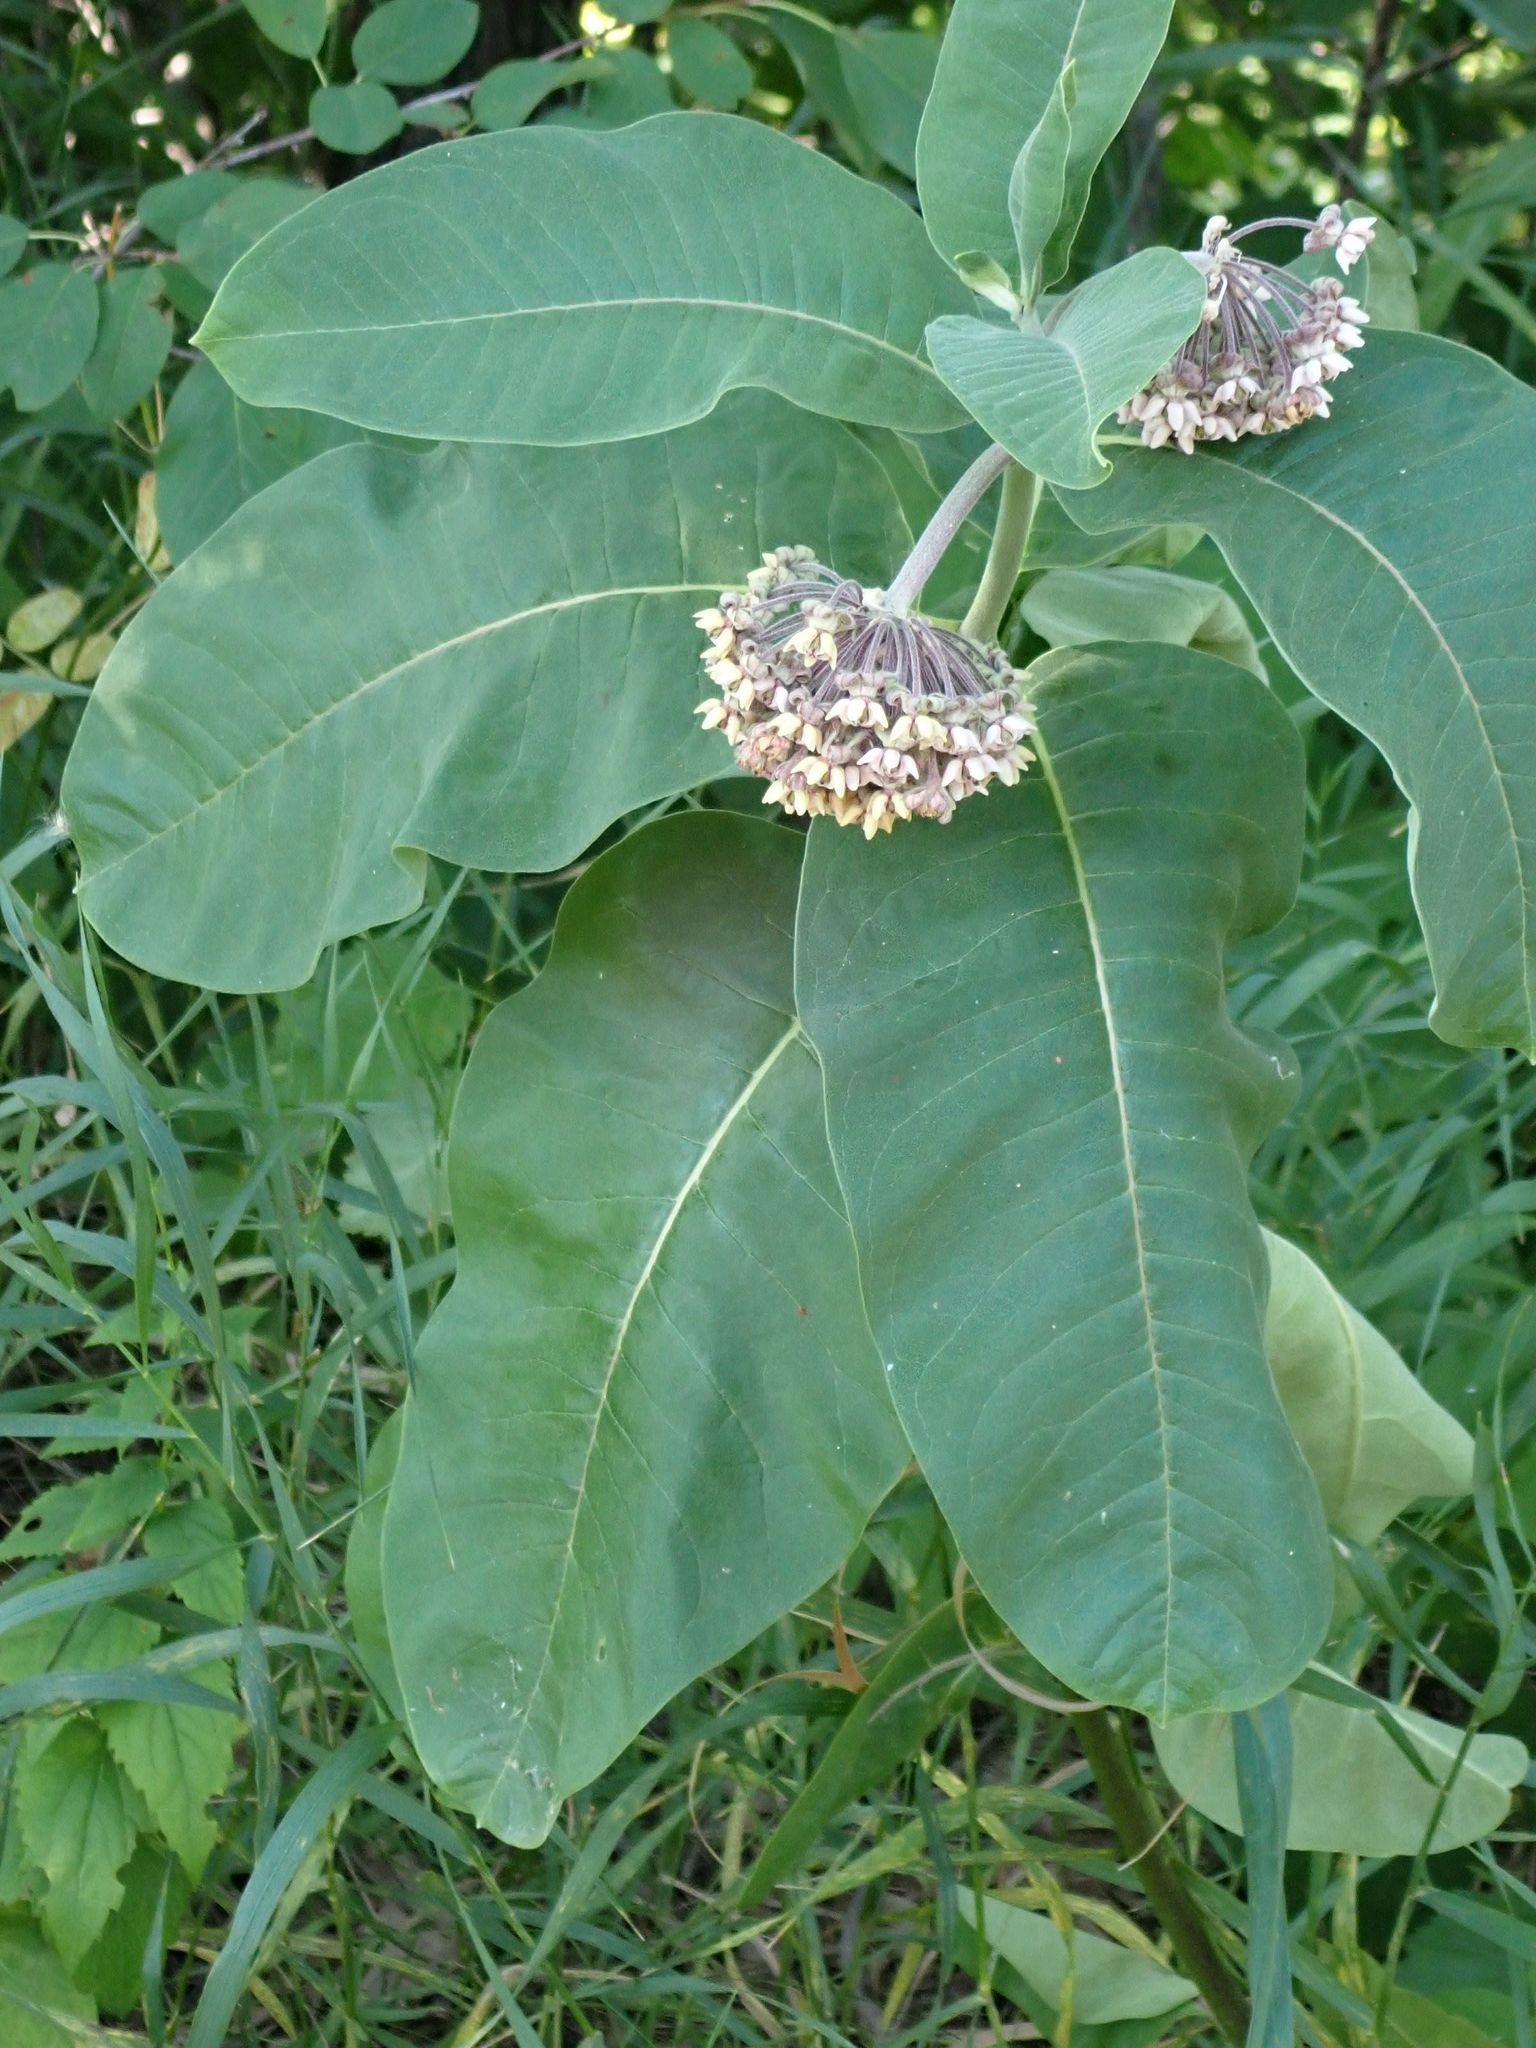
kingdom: Plantae
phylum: Tracheophyta
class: Magnoliopsida
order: Gentianales
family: Apocynaceae
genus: Asclepias
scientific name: Asclepias syriaca
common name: Common milkweed
